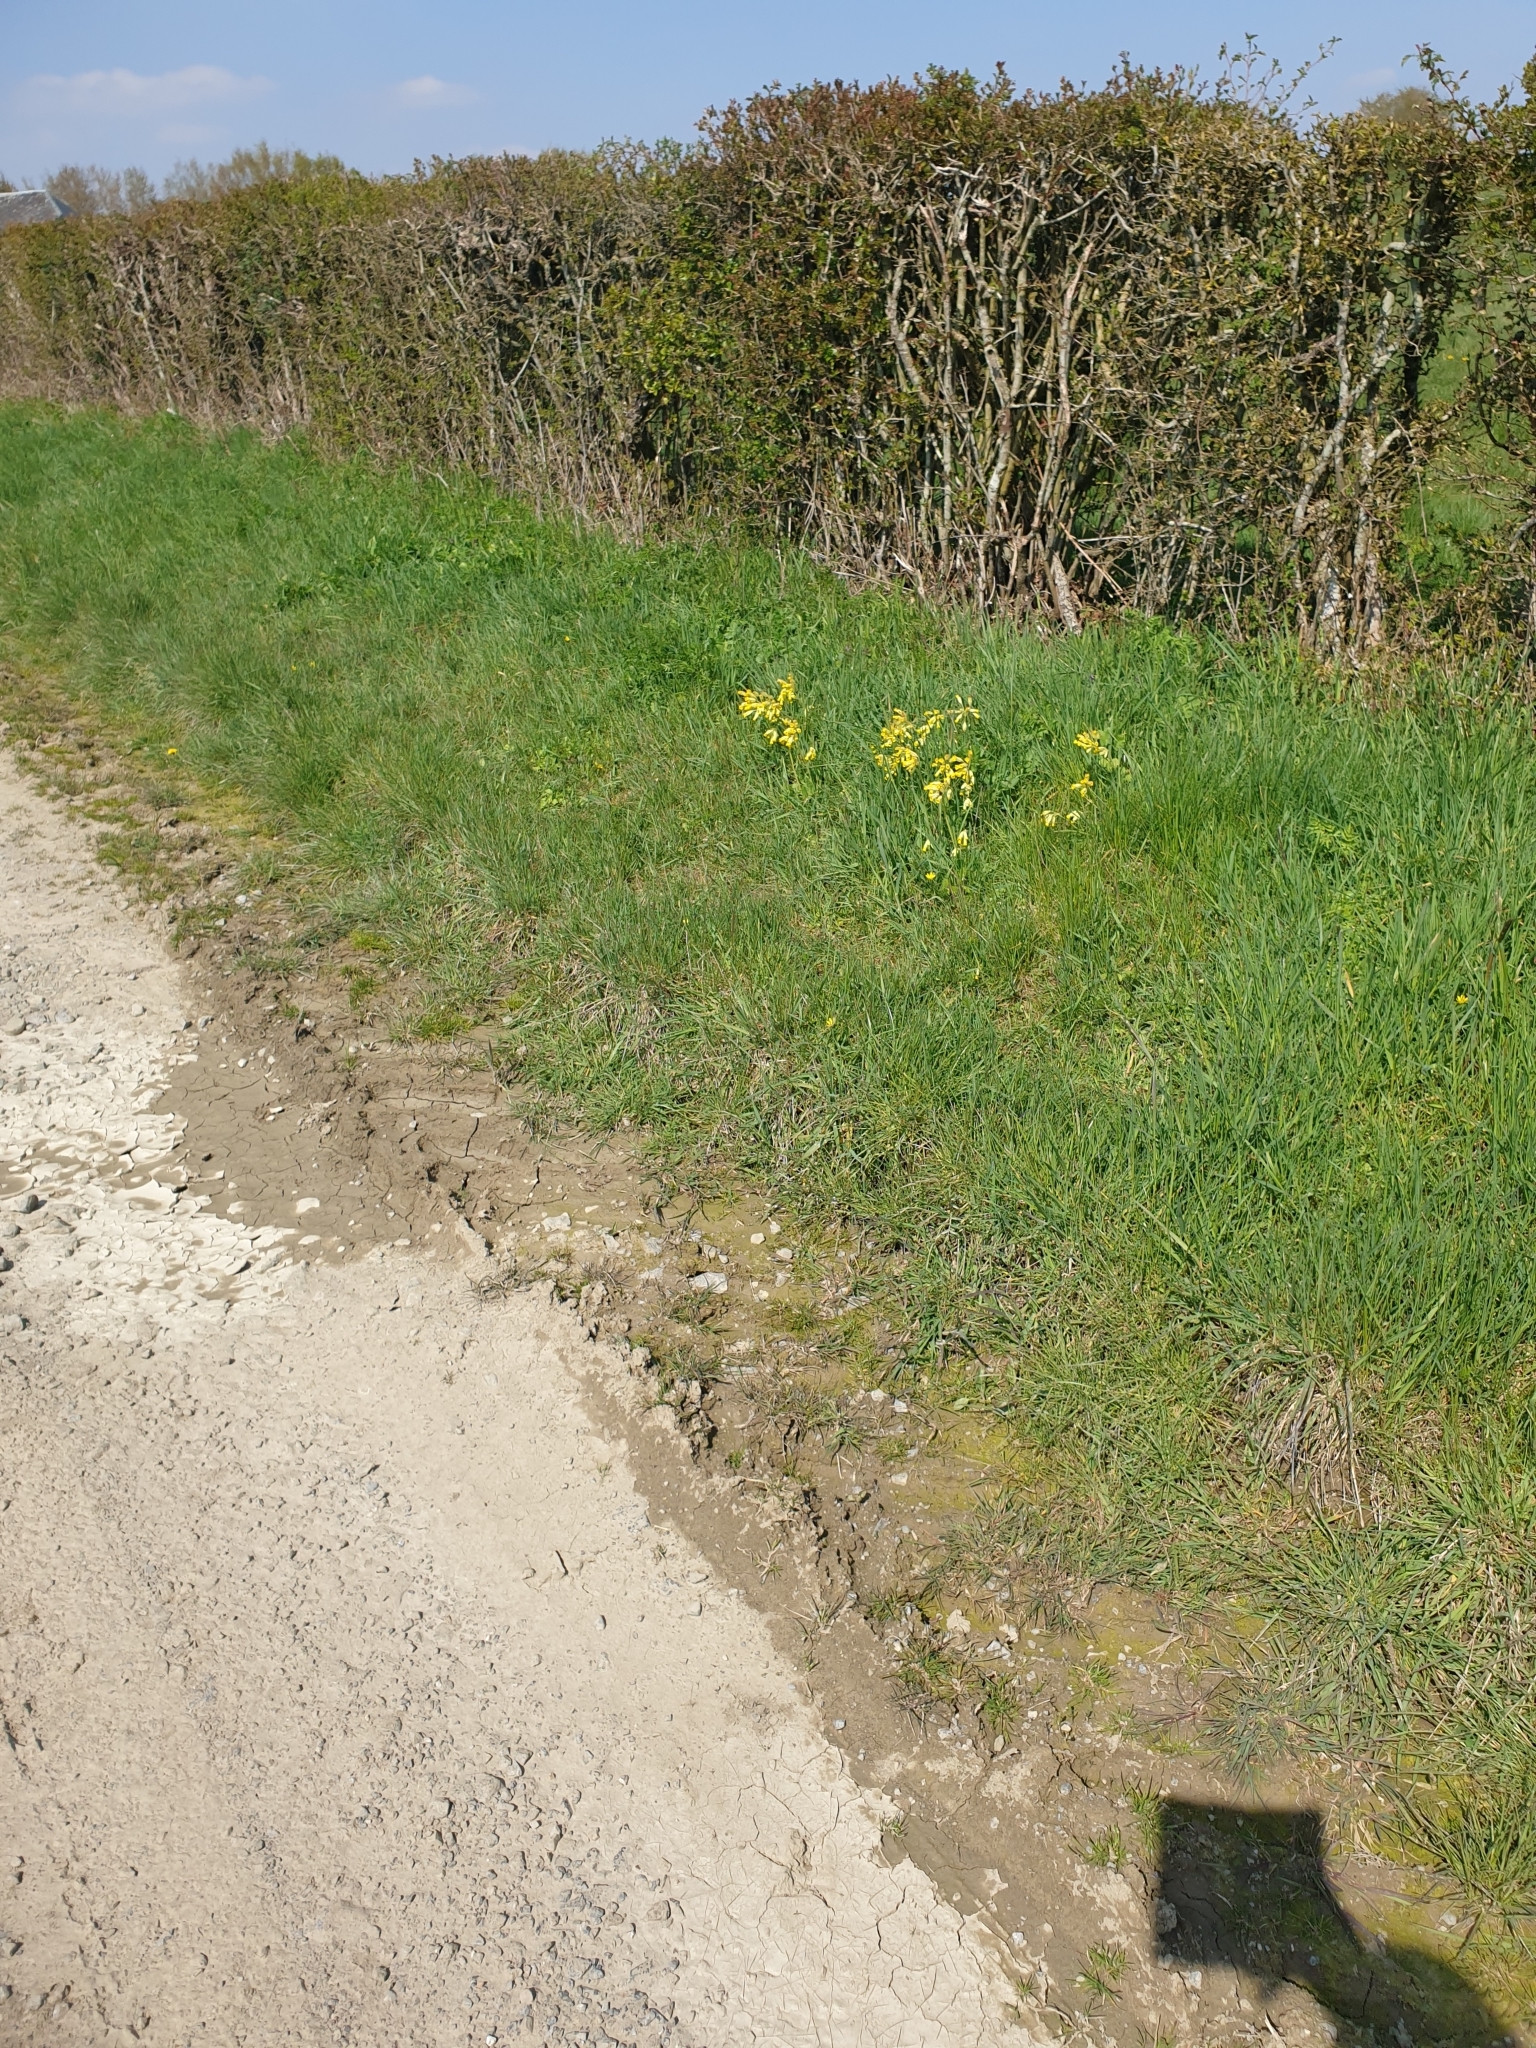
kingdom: Plantae
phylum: Tracheophyta
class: Magnoliopsida
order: Ericales
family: Primulaceae
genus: Primula
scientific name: Primula veris
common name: Cowslip
